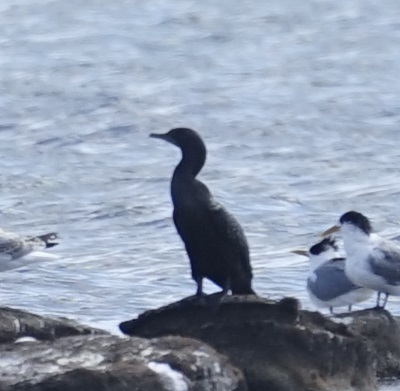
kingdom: Animalia
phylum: Chordata
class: Aves
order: Suliformes
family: Phalacrocoracidae
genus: Phalacrocorax
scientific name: Phalacrocorax sulcirostris
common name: Little black cormorant
